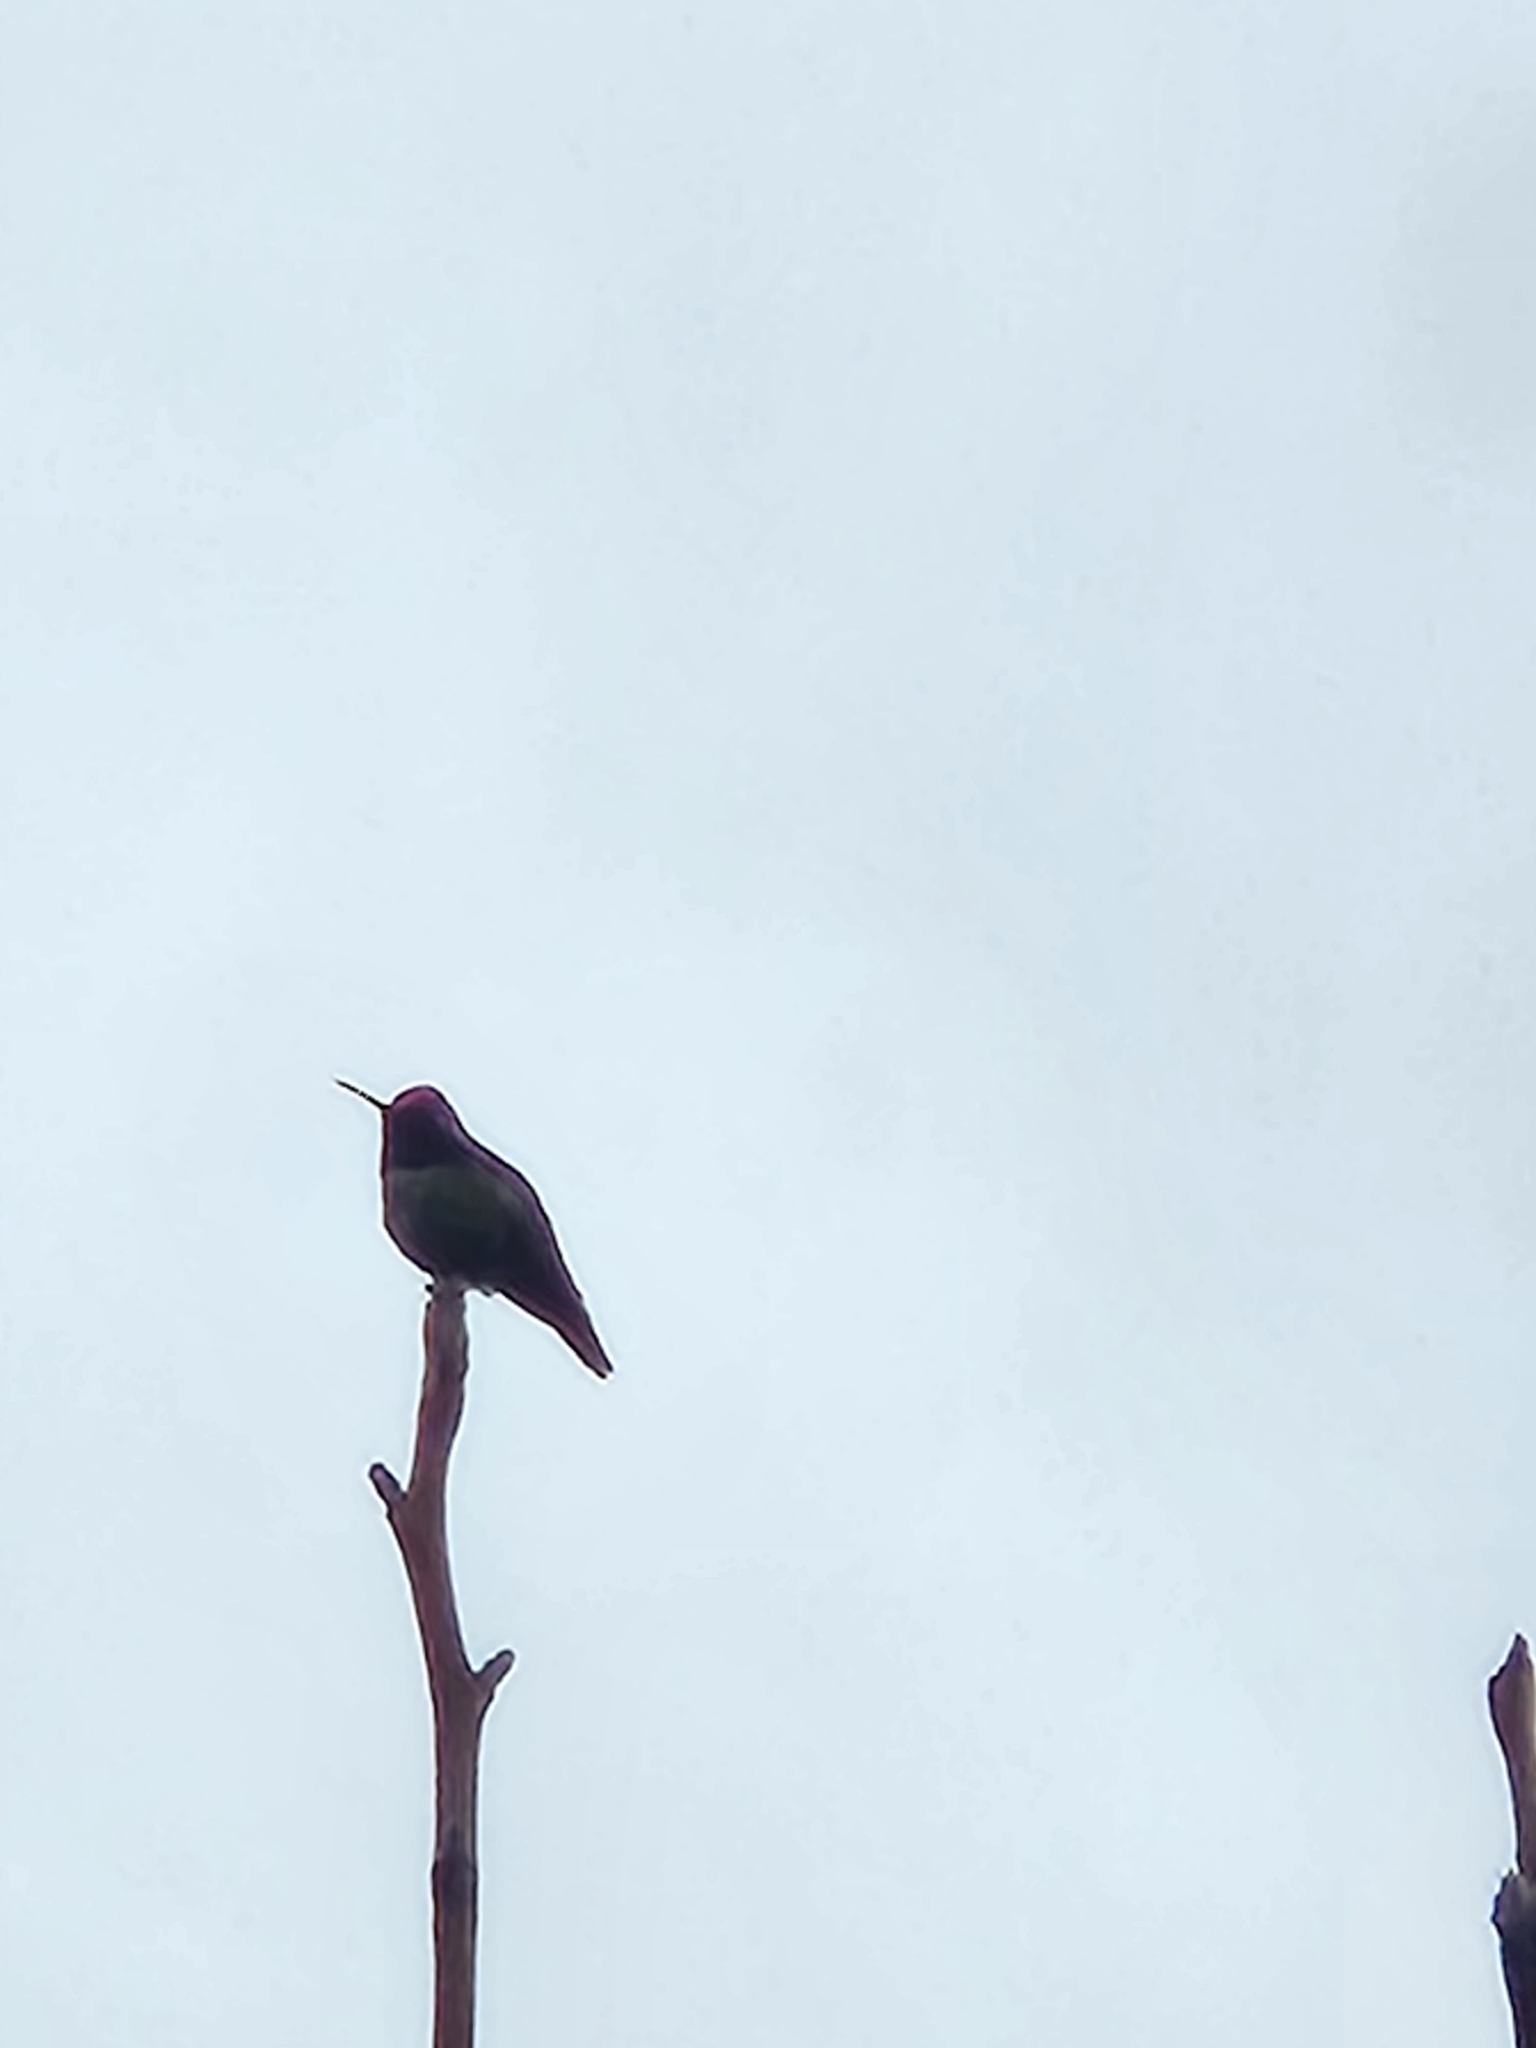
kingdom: Animalia
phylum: Chordata
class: Aves
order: Apodiformes
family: Trochilidae
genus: Calypte
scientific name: Calypte anna
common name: Anna's hummingbird
